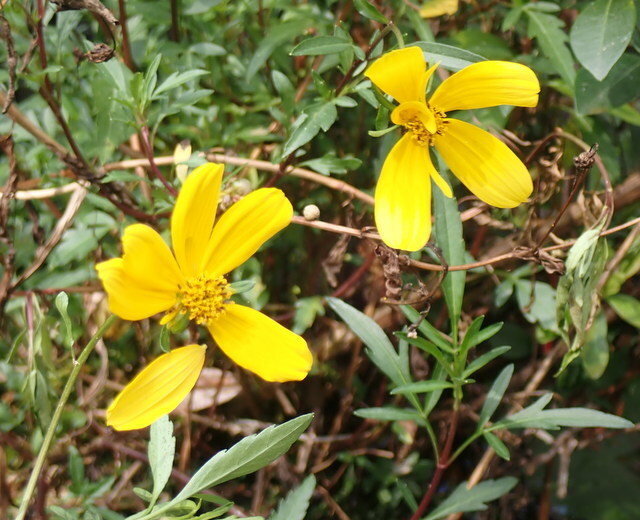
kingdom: Plantae
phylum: Tracheophyta
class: Magnoliopsida
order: Asterales
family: Asteraceae
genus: Bidens
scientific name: Bidens mitis
